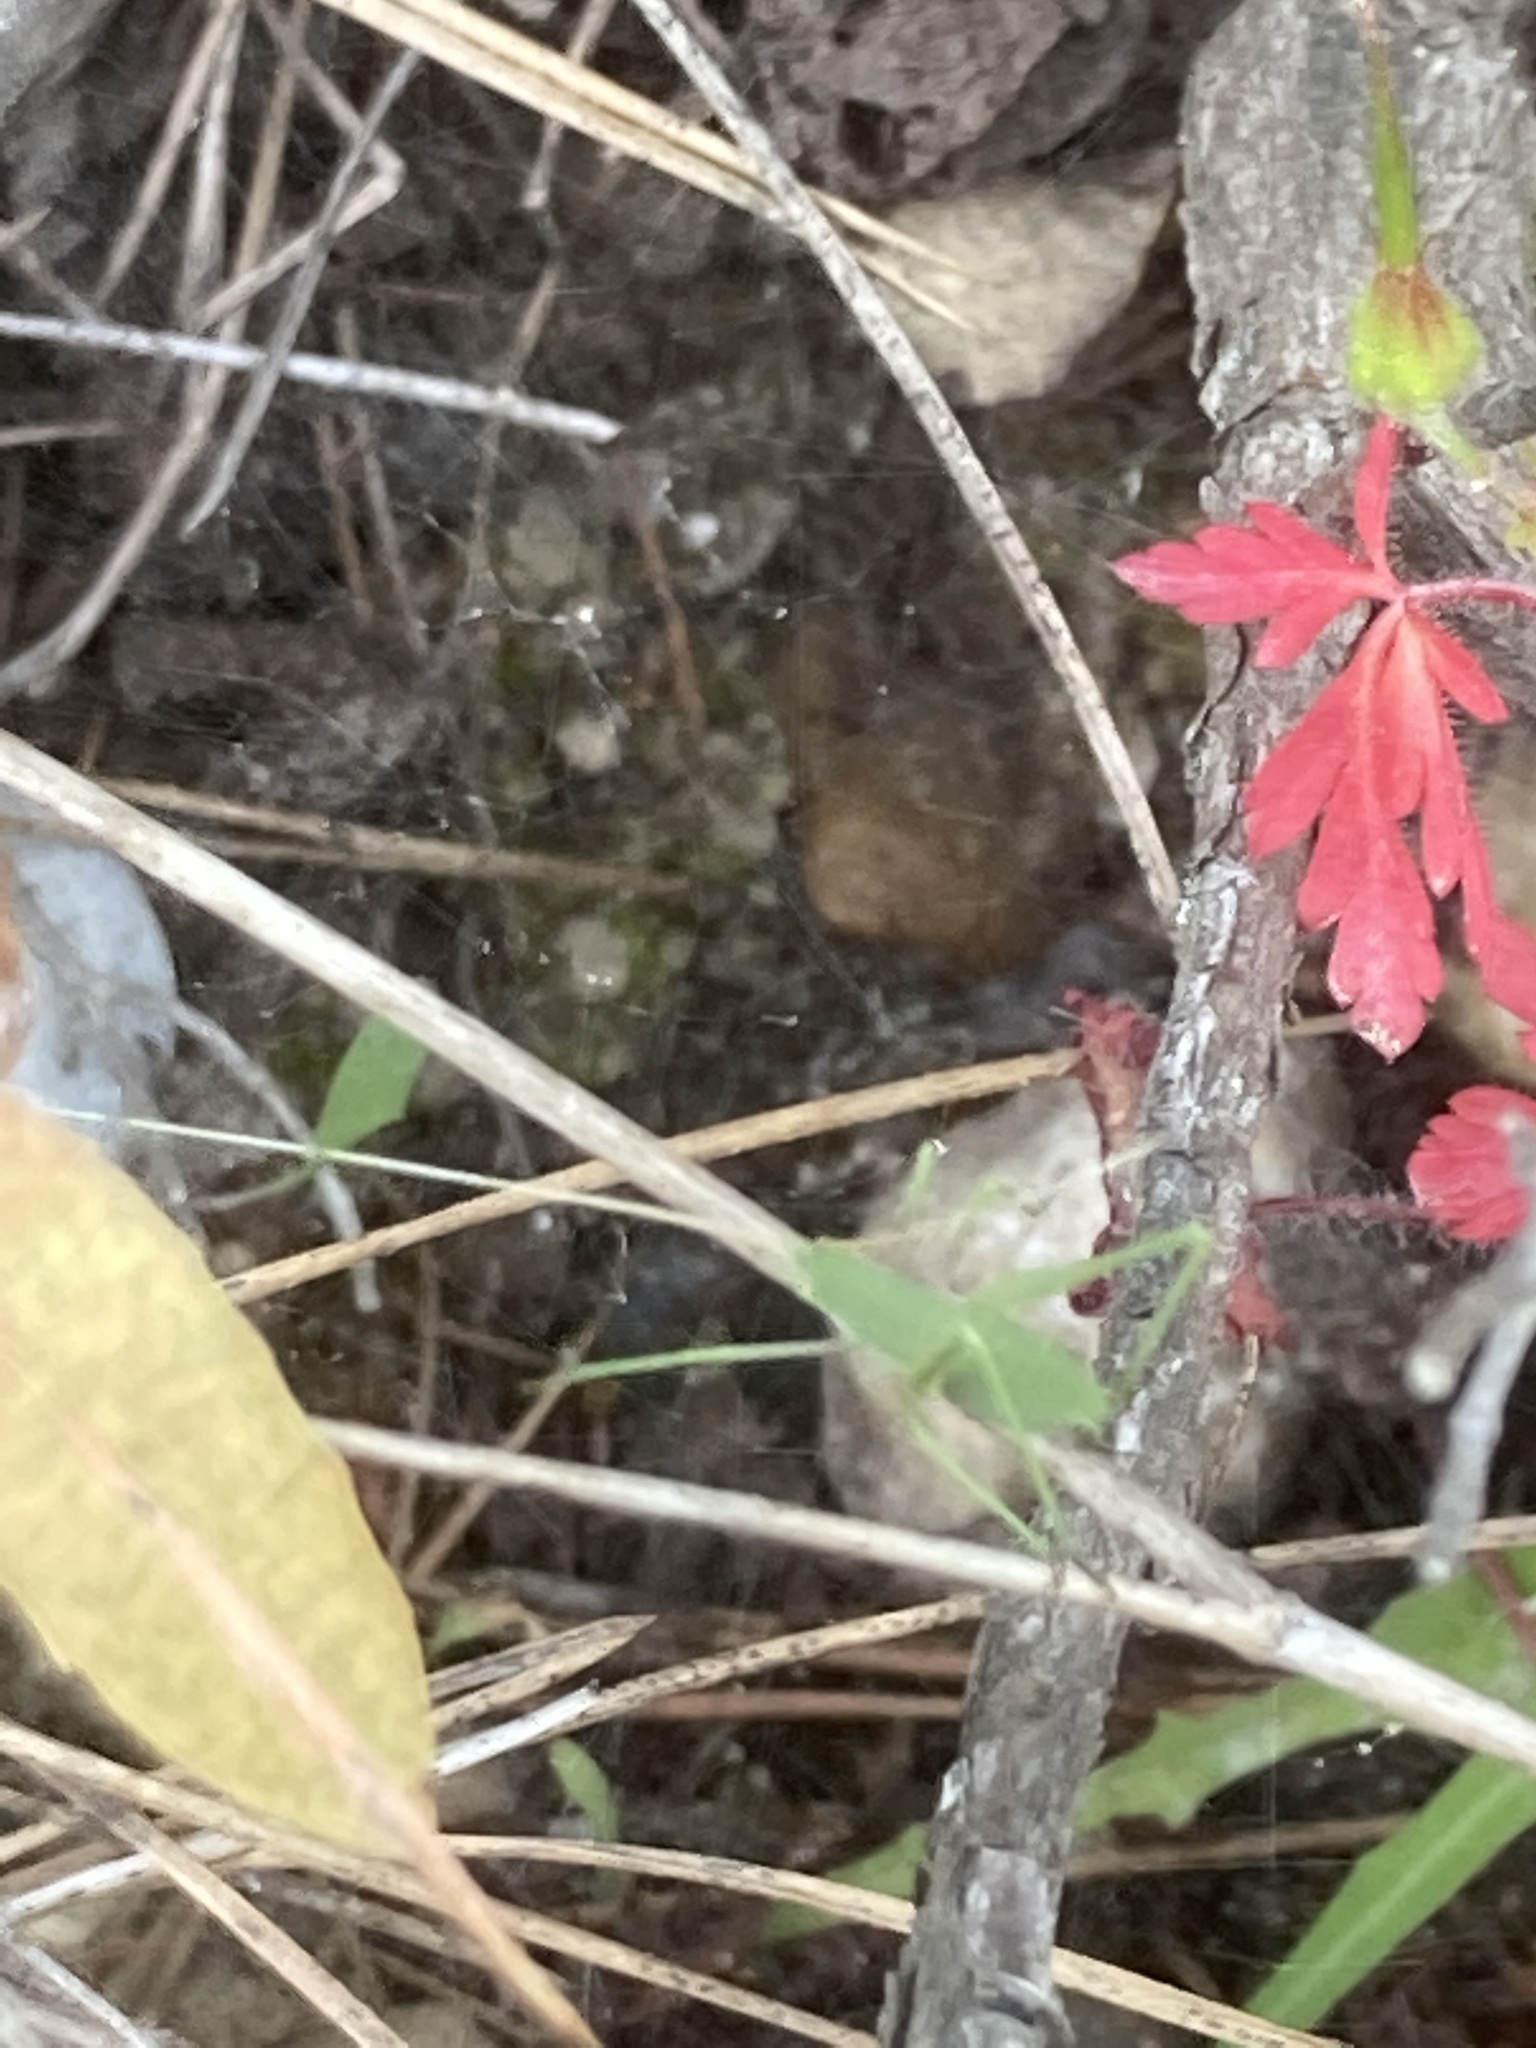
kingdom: Animalia
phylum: Arthropoda
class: Insecta
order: Orthoptera
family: Tettigoniidae
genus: Acrometopa
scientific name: Acrometopa syriaca
